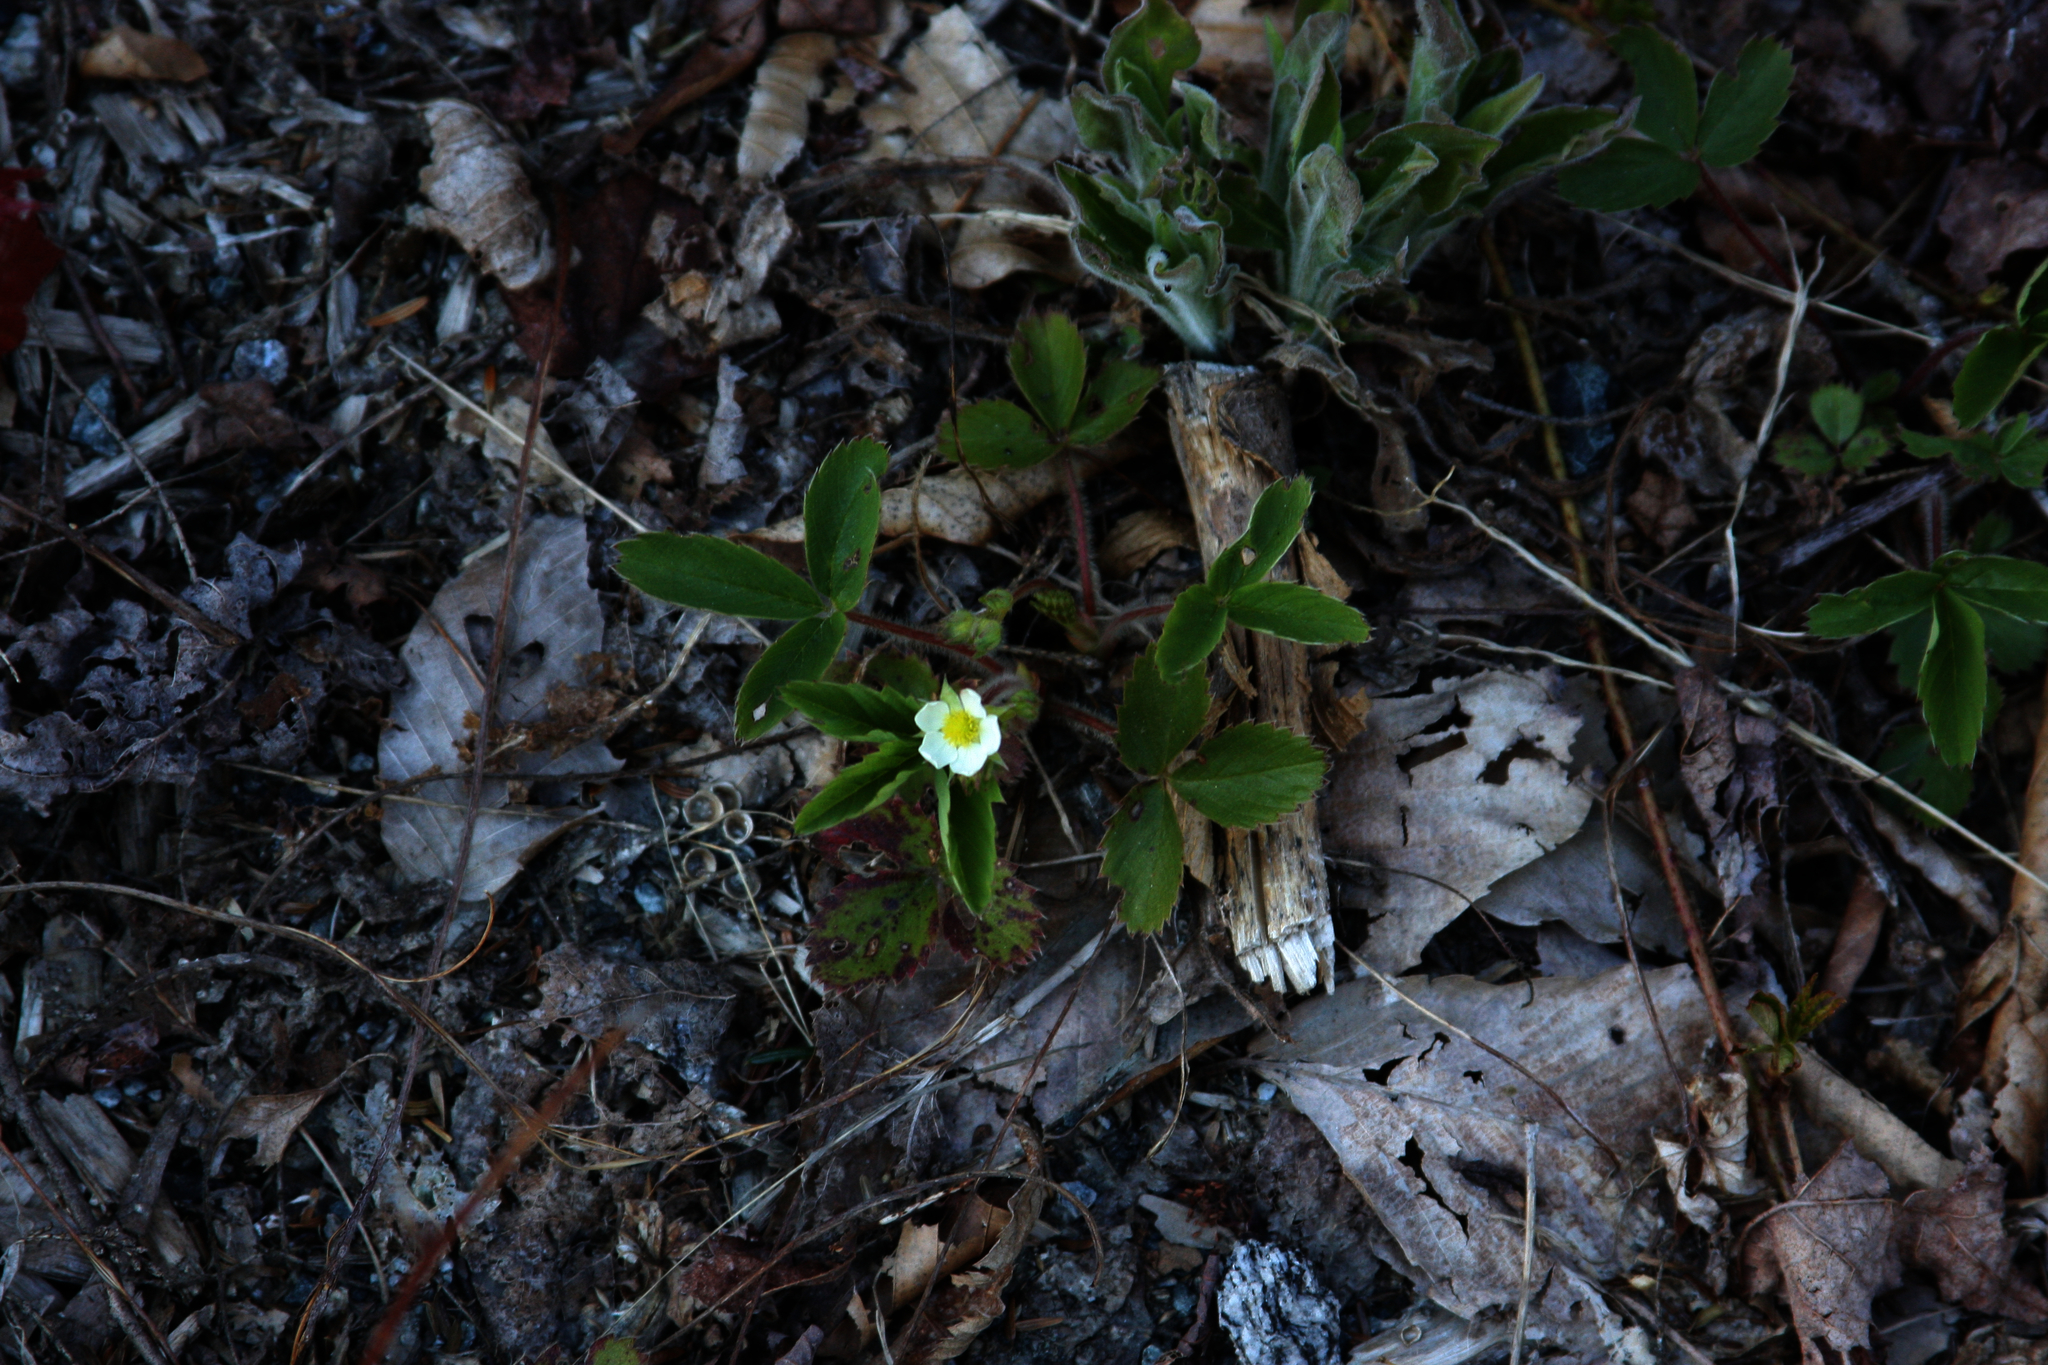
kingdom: Plantae
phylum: Tracheophyta
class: Magnoliopsida
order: Rosales
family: Rosaceae
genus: Fragaria
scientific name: Fragaria virginiana
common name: Thickleaved wild strawberry
